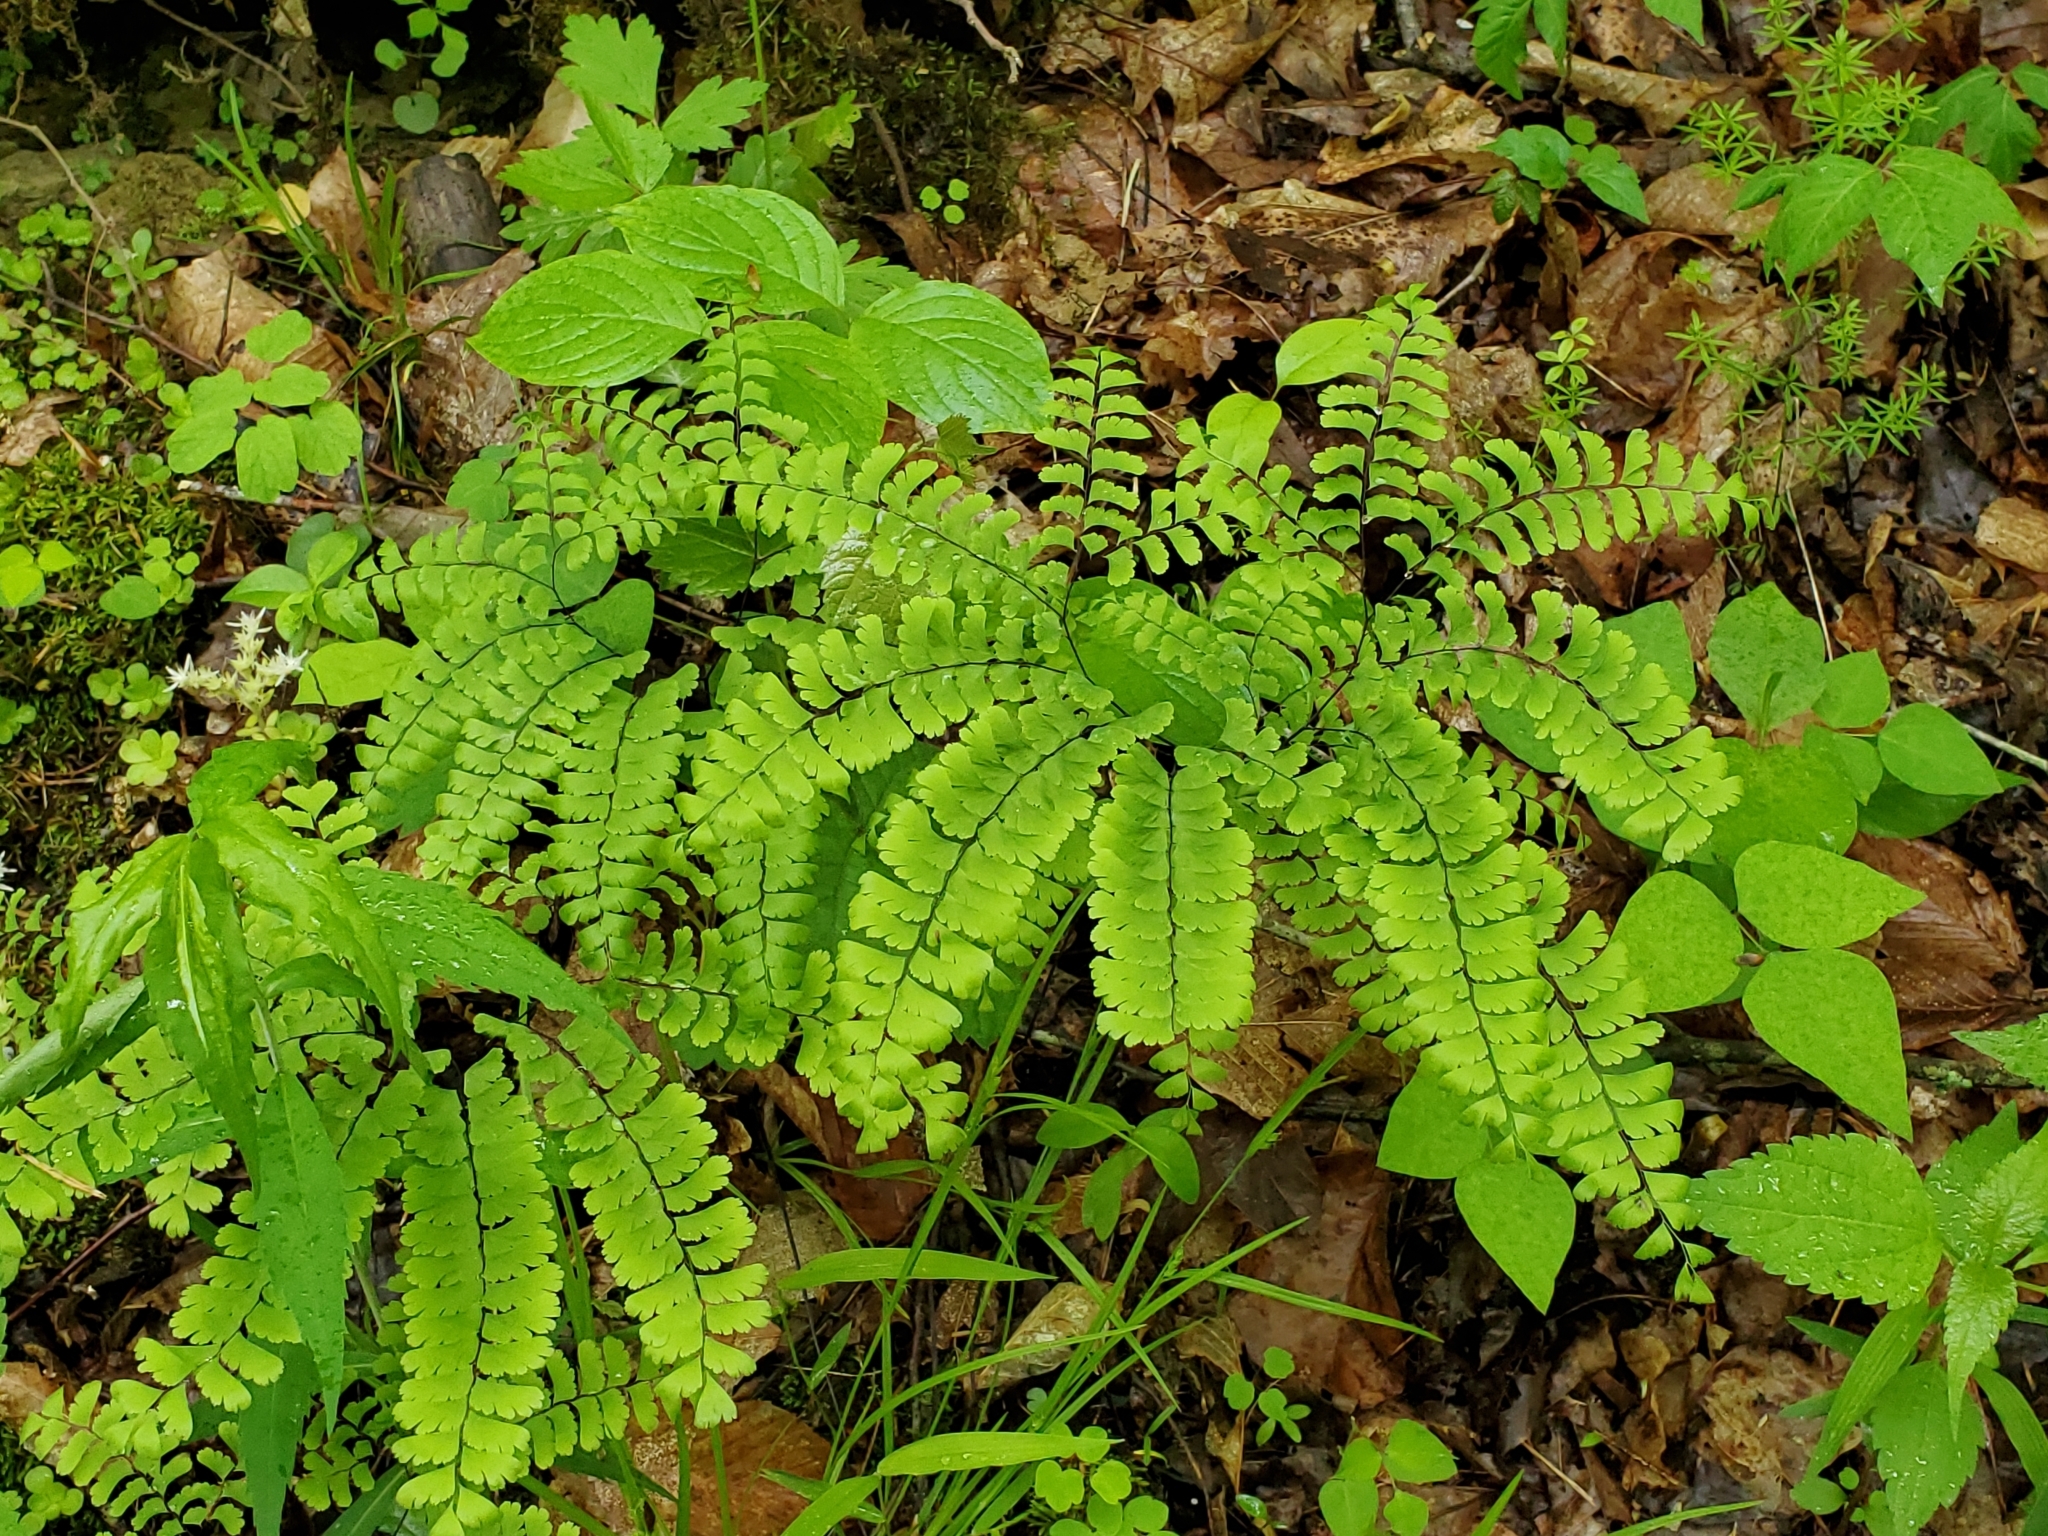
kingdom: Plantae
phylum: Tracheophyta
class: Polypodiopsida
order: Polypodiales
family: Pteridaceae
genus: Adiantum
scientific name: Adiantum pedatum
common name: Five-finger fern
